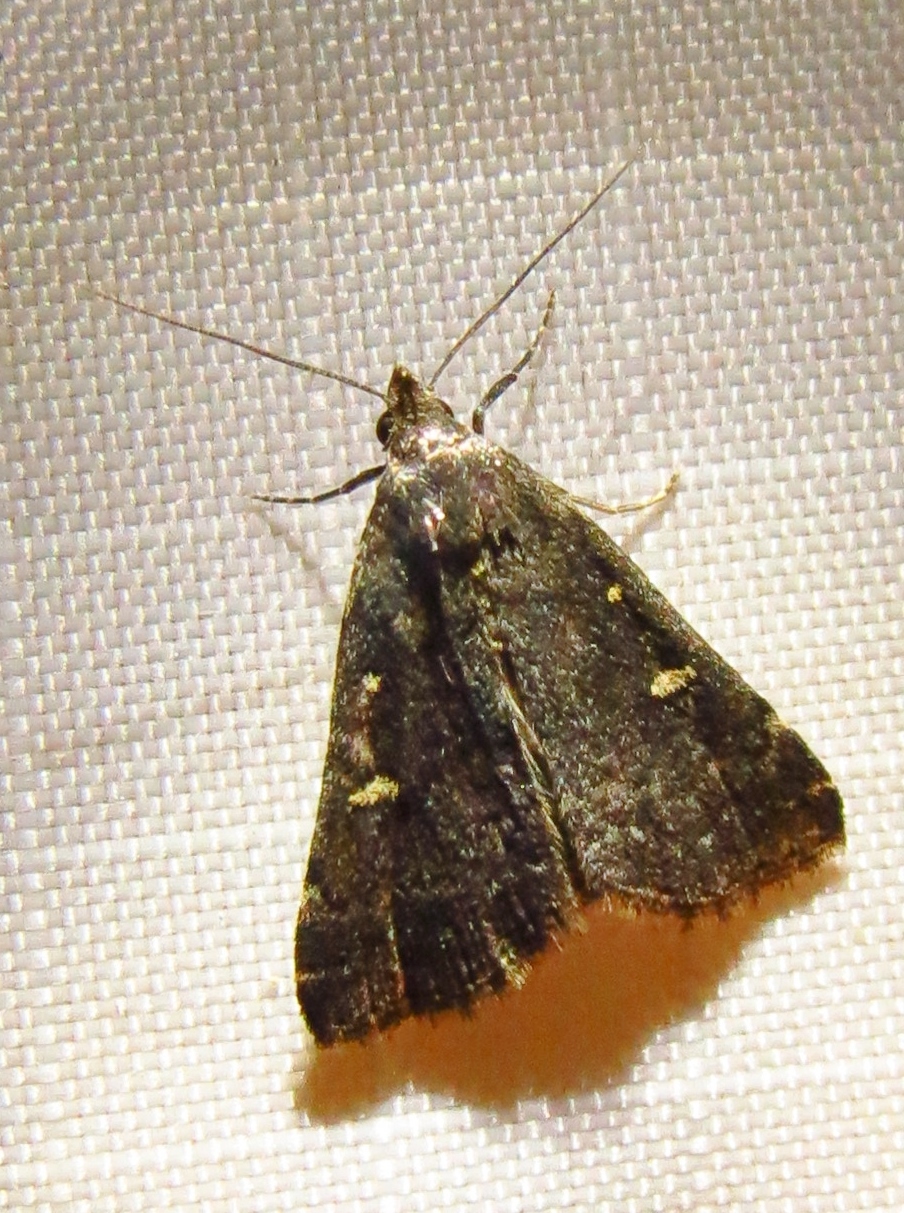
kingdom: Animalia
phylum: Arthropoda
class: Insecta
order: Lepidoptera
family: Erebidae
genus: Tetanolita
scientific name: Tetanolita mynesalis
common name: Smoky tetanolita moth
